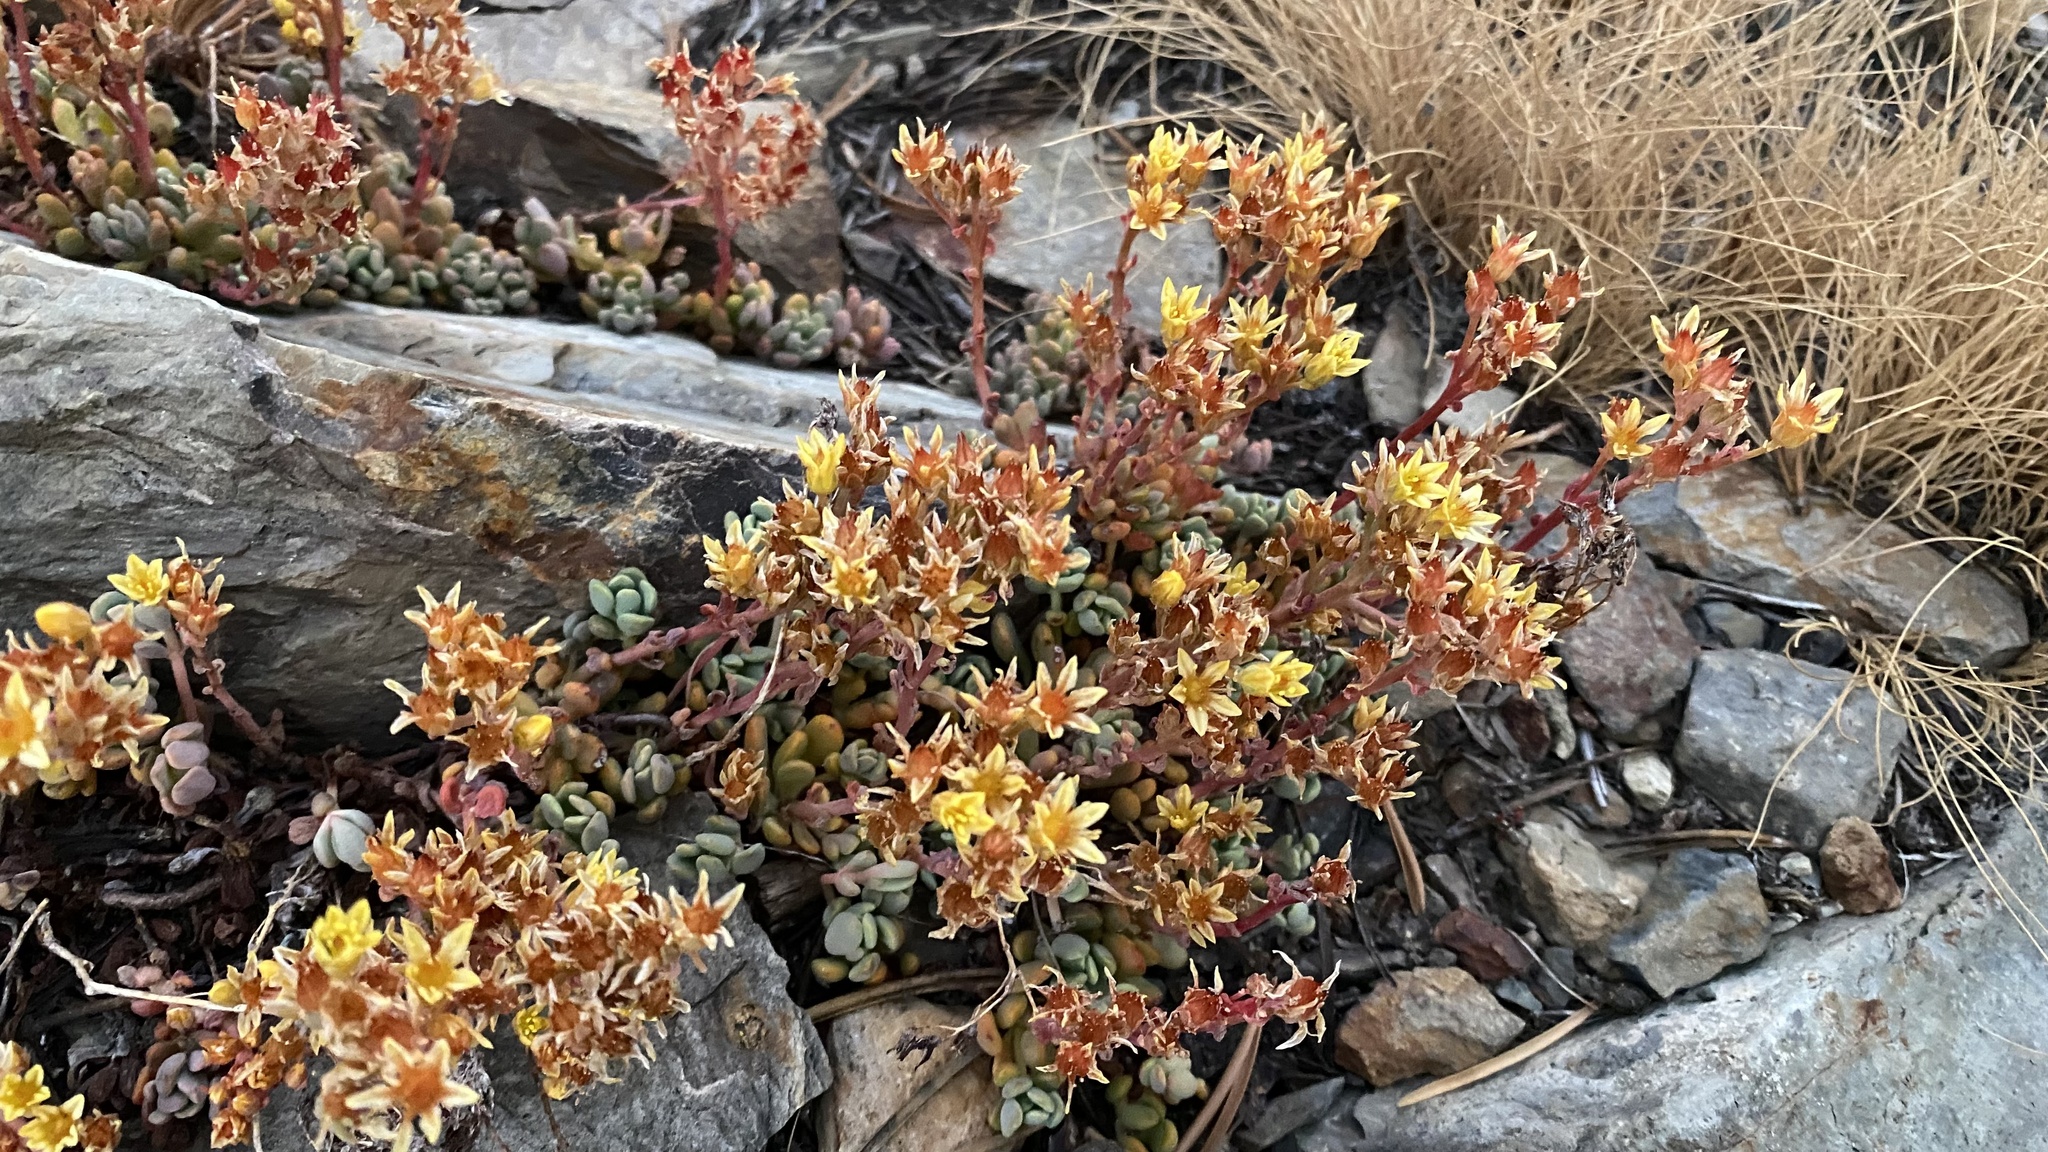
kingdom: Plantae
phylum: Tracheophyta
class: Magnoliopsida
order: Saxifragales
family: Crassulaceae
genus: Sedum
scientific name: Sedum obtusatum
